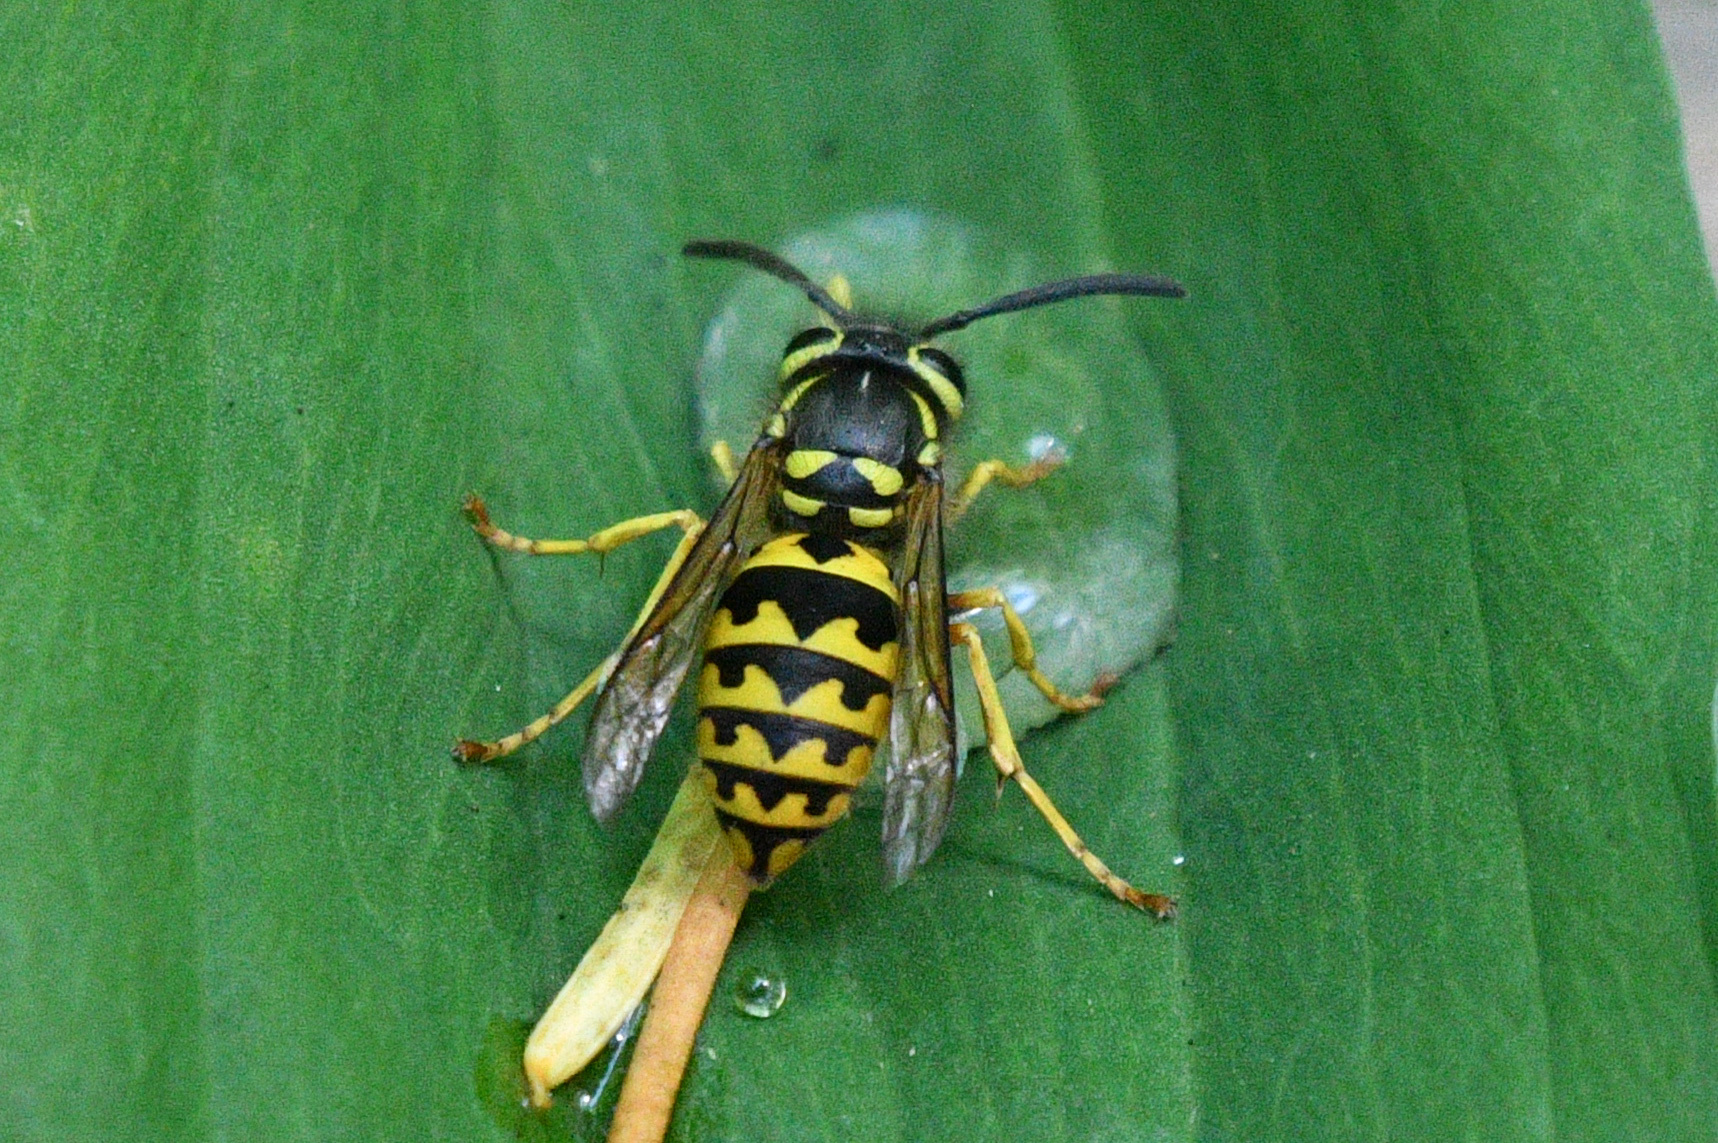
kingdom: Animalia
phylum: Arthropoda
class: Insecta
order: Hymenoptera
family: Vespidae
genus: Vespula
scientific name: Vespula pensylvanica
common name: Western yellowjacket
